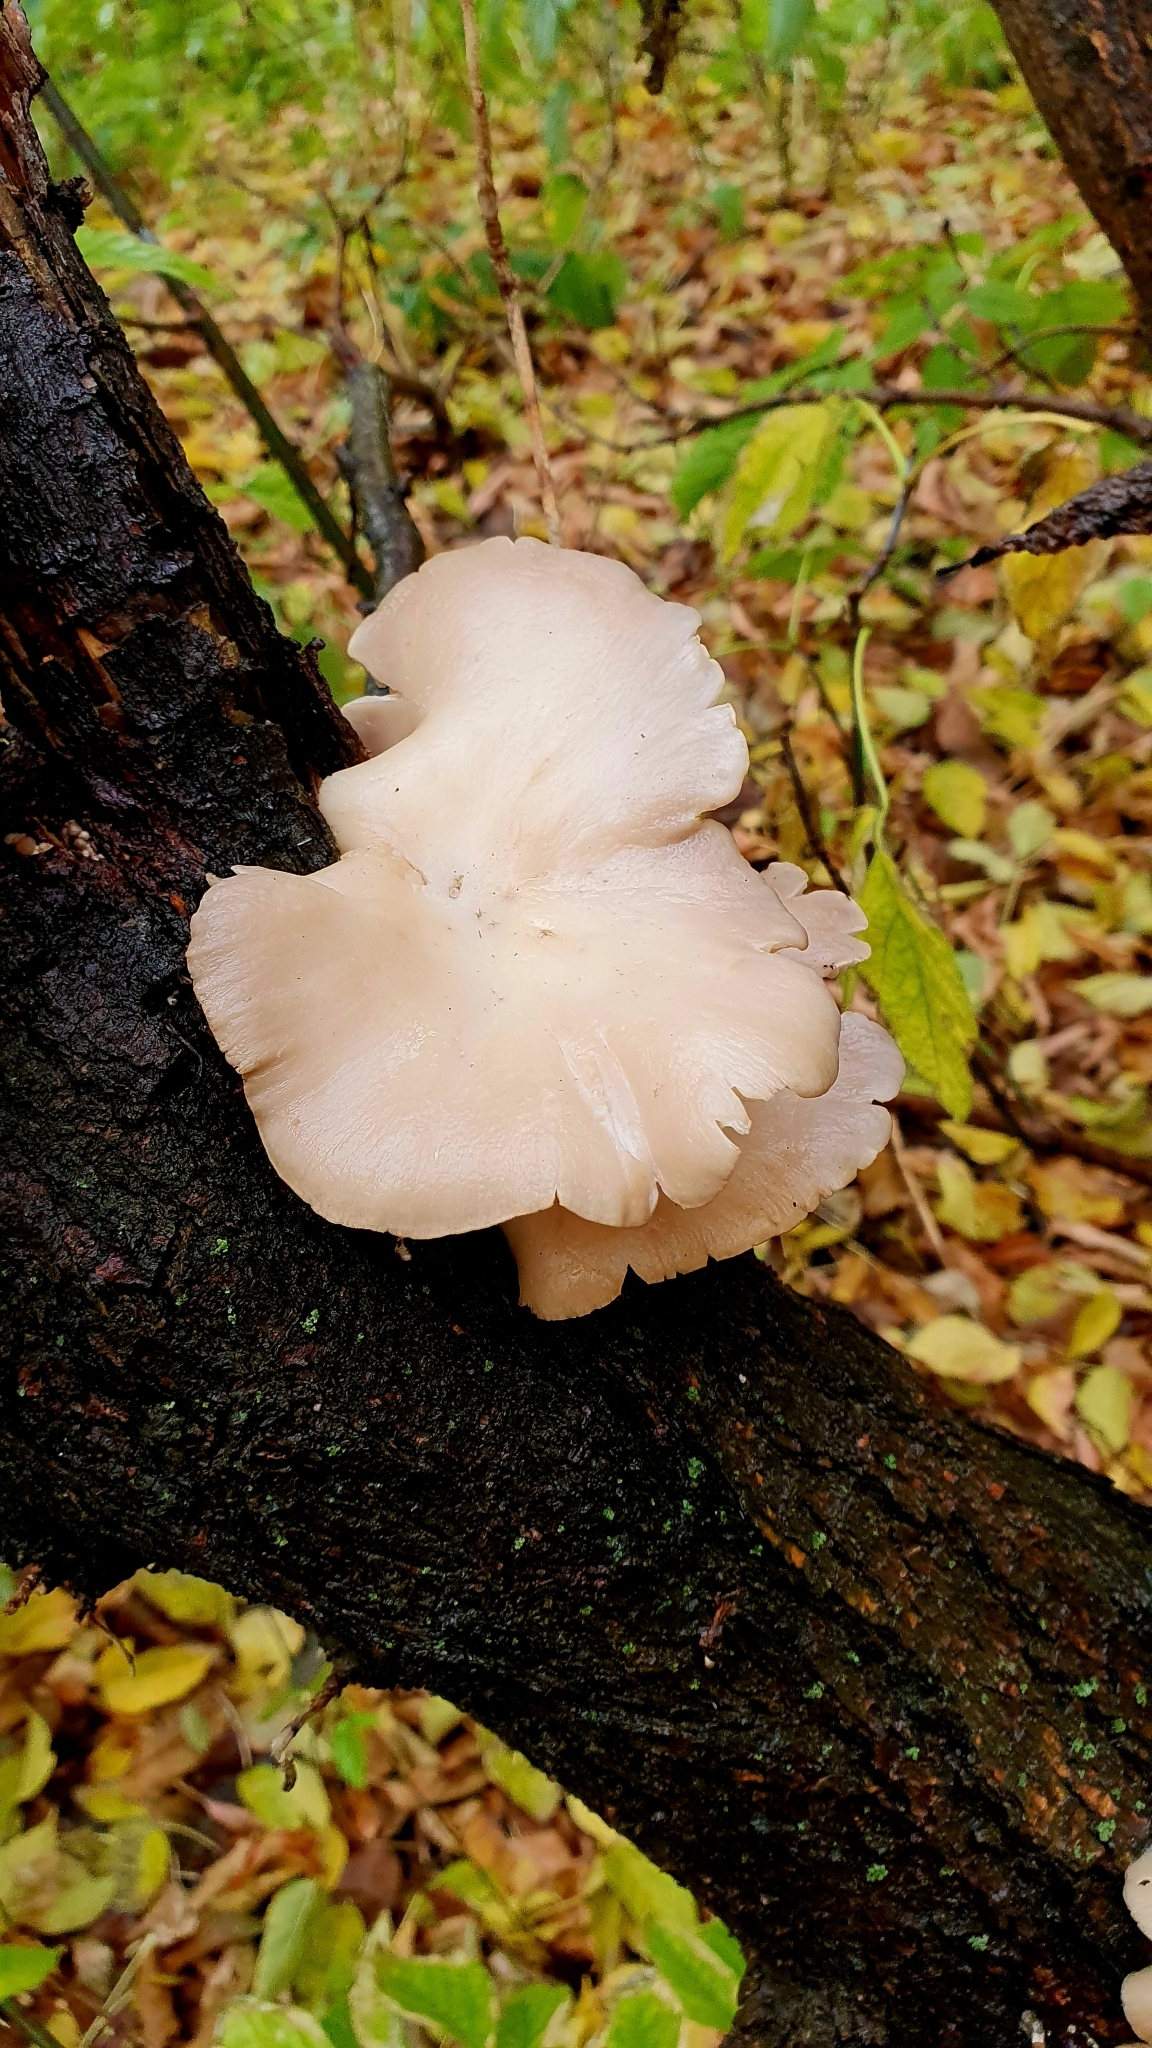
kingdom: Fungi
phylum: Basidiomycota
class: Agaricomycetes
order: Agaricales
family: Pleurotaceae
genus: Pleurotus
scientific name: Pleurotus pulmonarius
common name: Pale oyster
